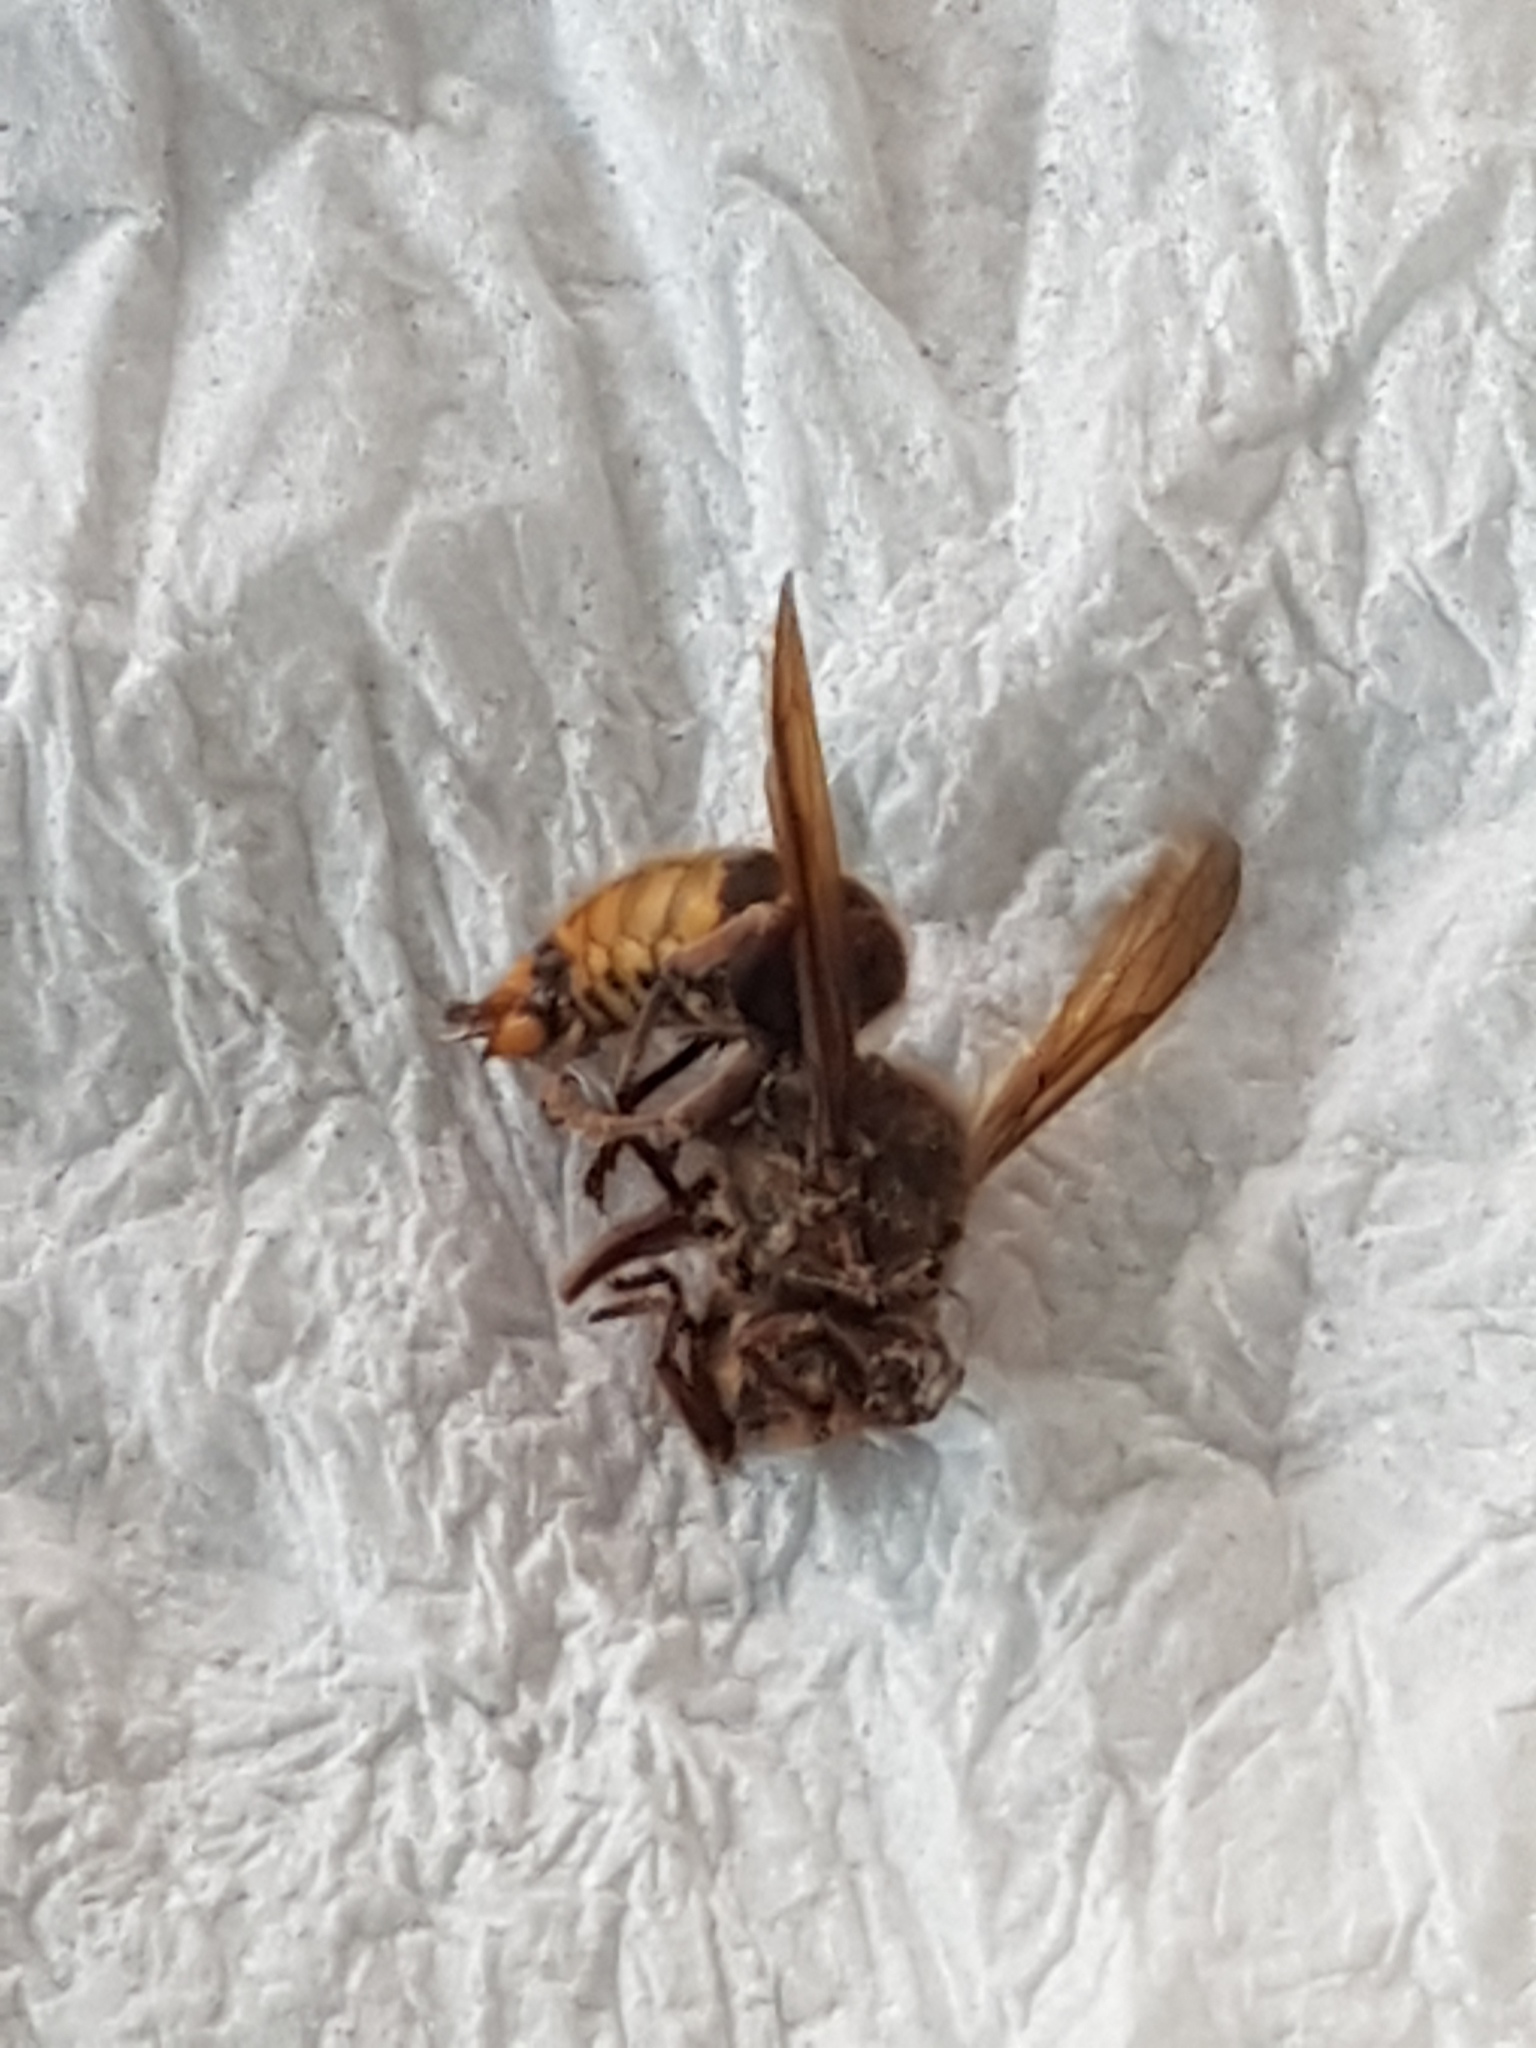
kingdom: Animalia
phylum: Arthropoda
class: Insecta
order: Hymenoptera
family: Vespidae
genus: Vespa
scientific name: Vespa crabro
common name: Hornet
